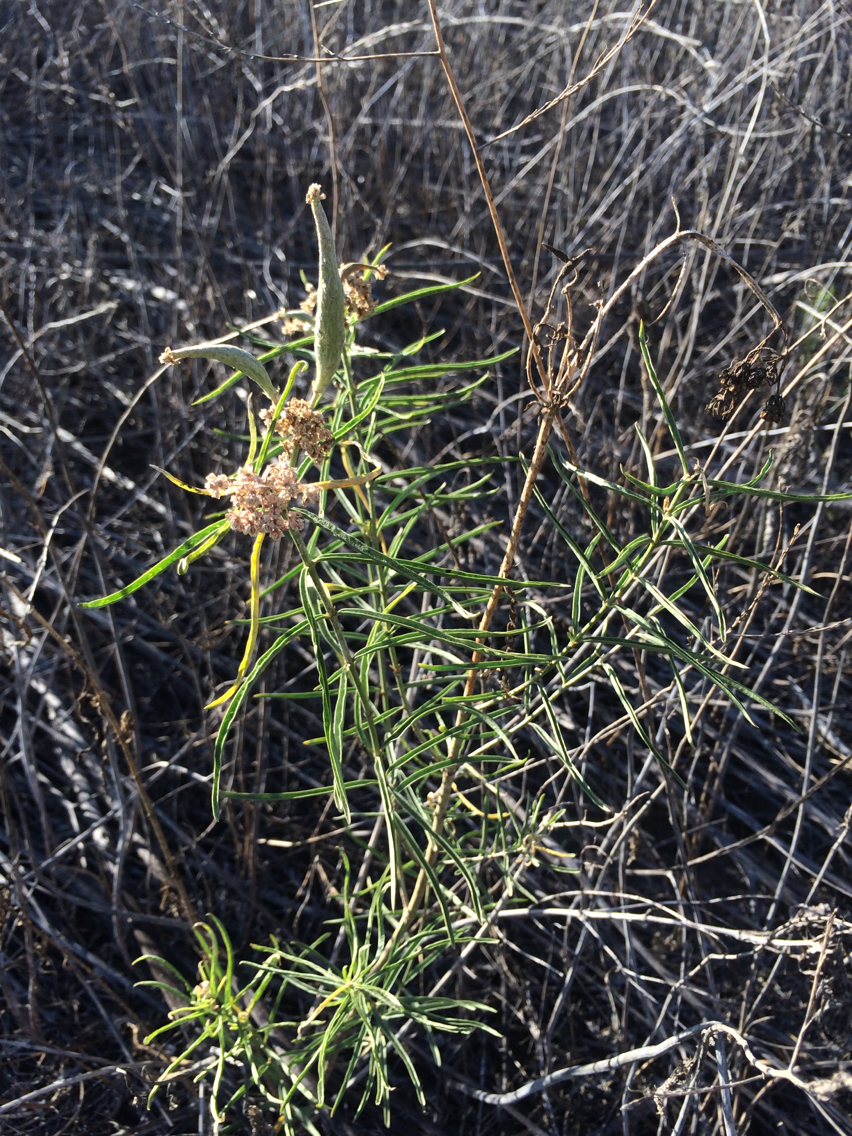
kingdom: Plantae
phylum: Tracheophyta
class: Magnoliopsida
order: Gentianales
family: Apocynaceae
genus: Asclepias
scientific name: Asclepias fascicularis
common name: Mexican milkweed
